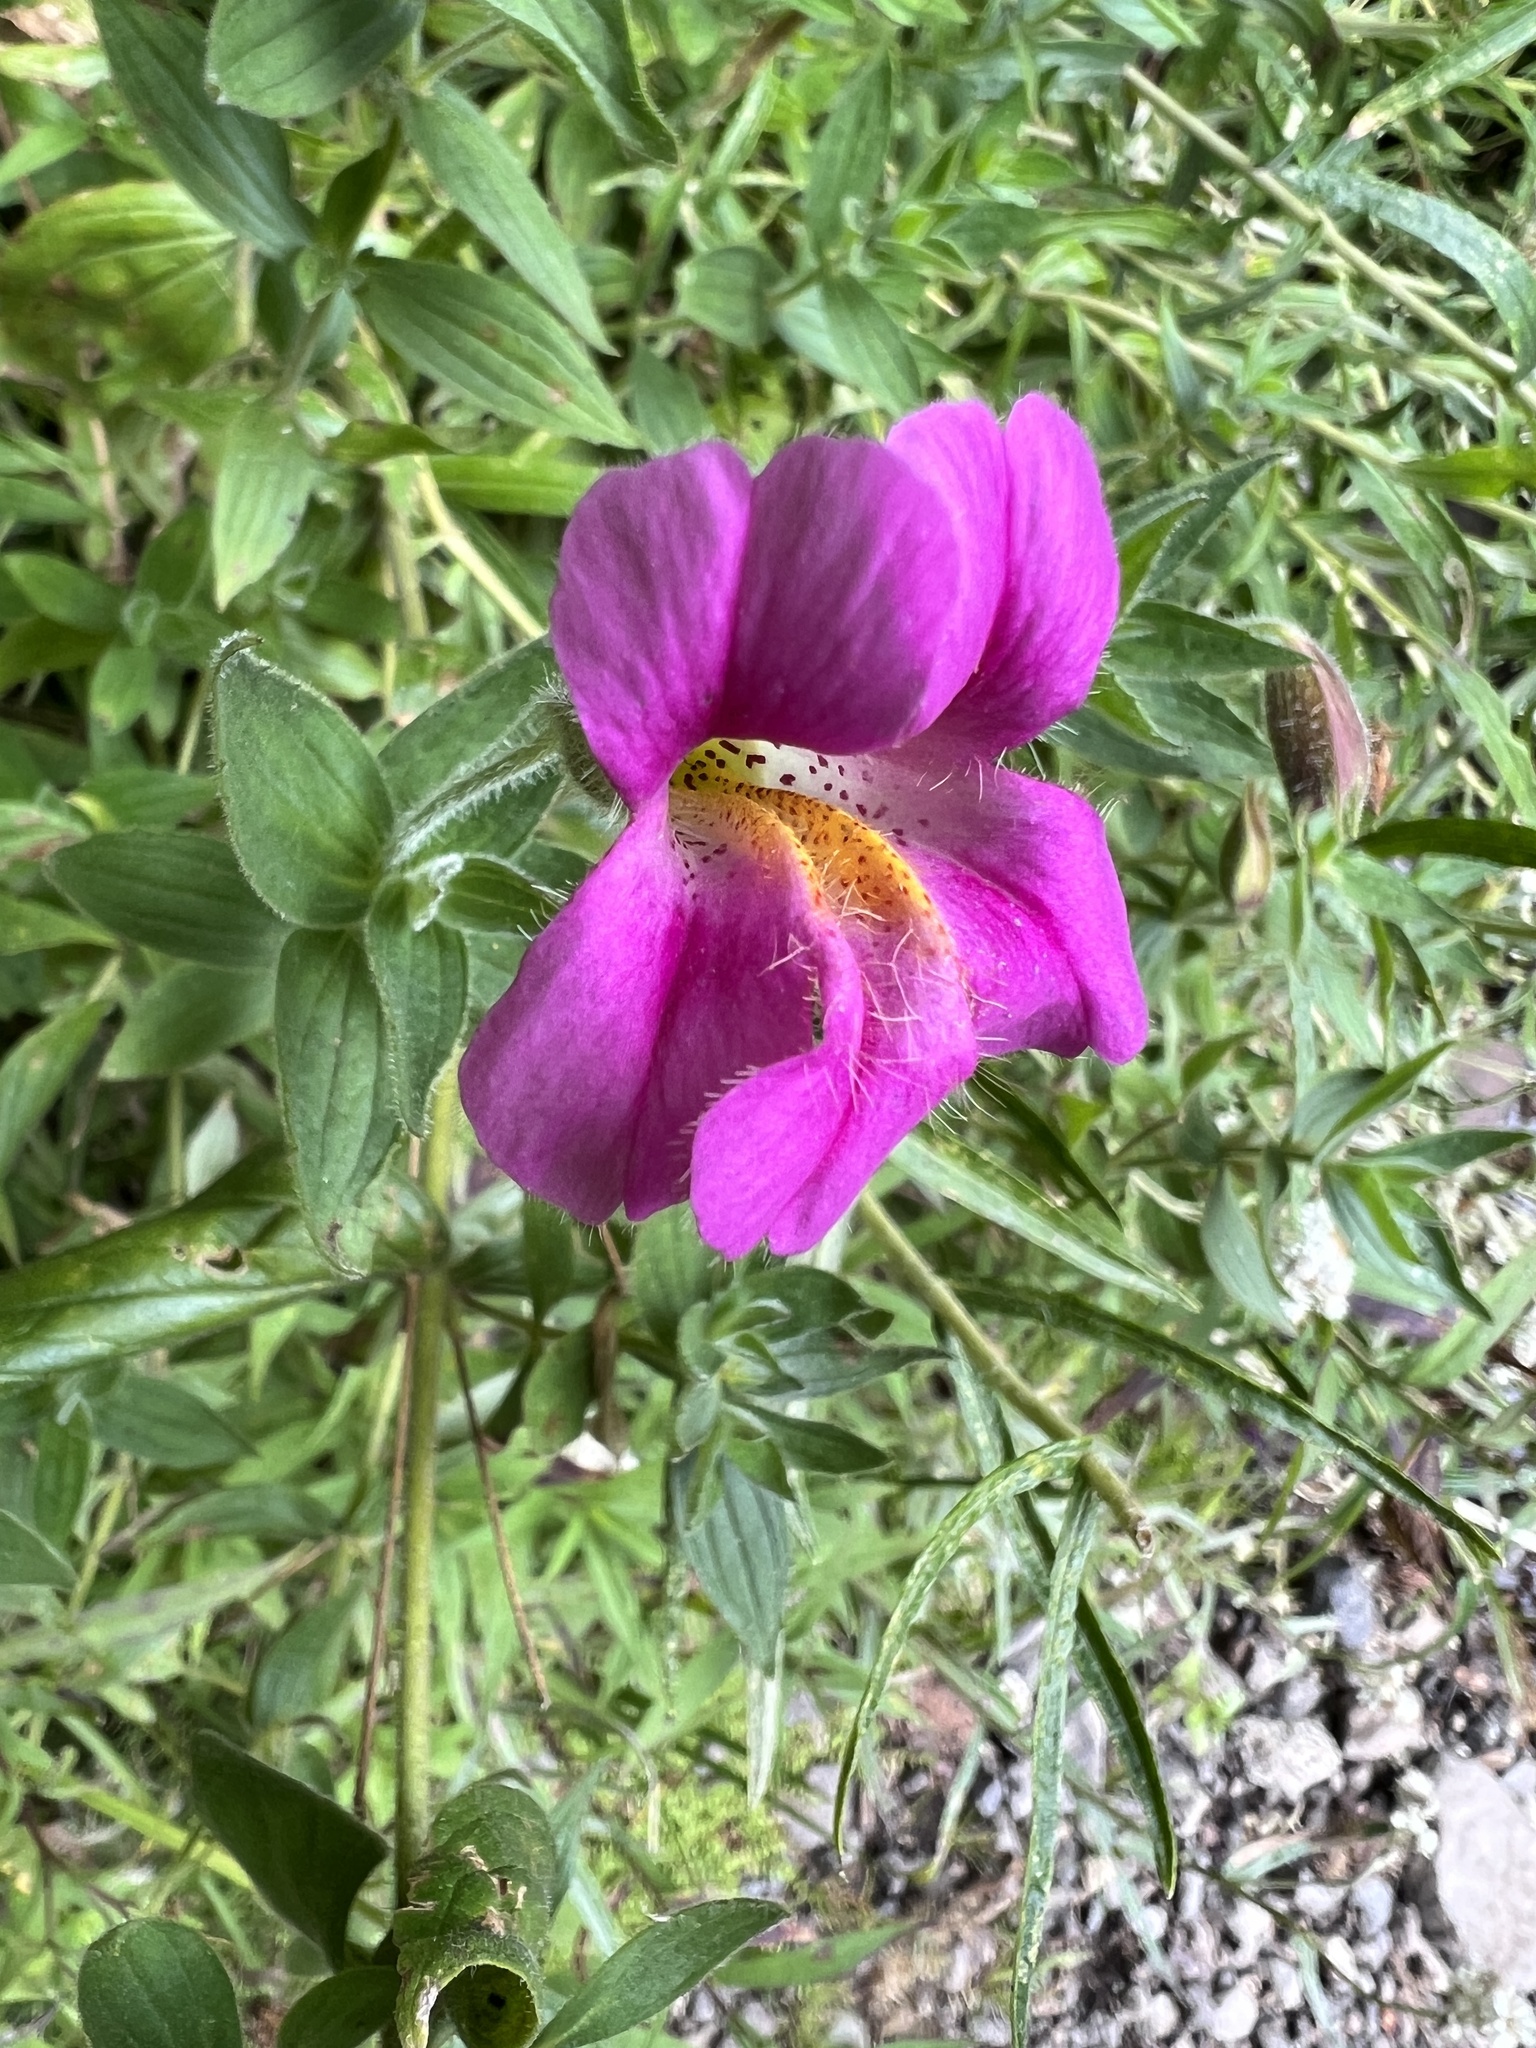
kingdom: Plantae
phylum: Tracheophyta
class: Magnoliopsida
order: Lamiales
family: Phrymaceae
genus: Erythranthe
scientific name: Erythranthe lewisii
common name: Lewis's monkey-flower
